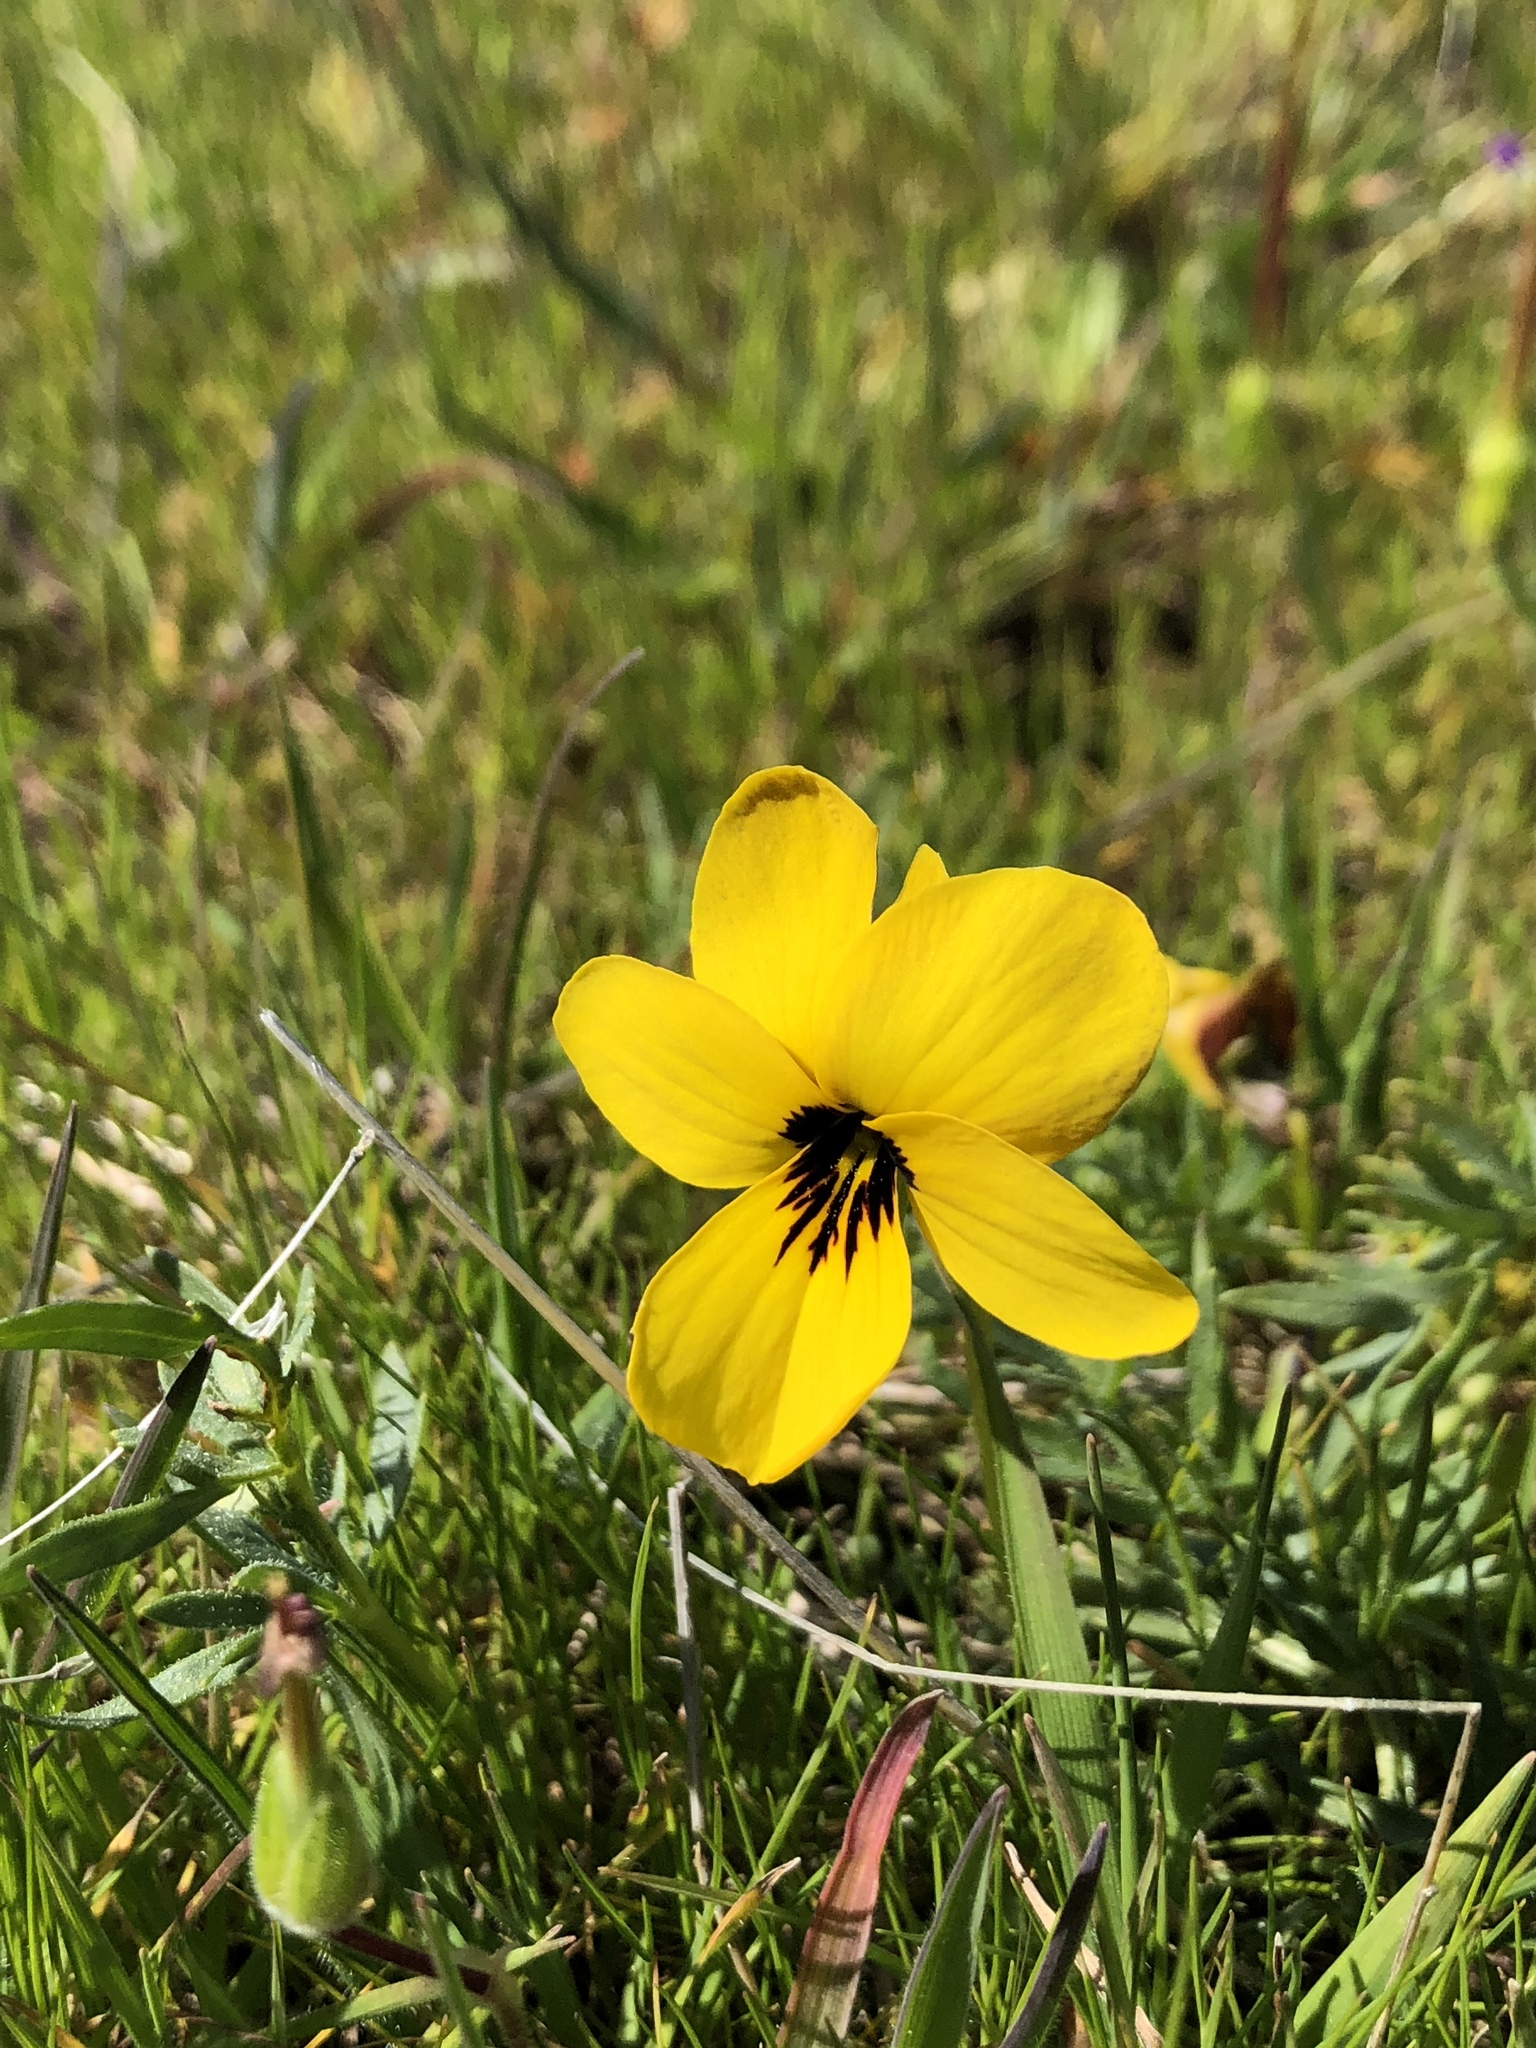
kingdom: Plantae
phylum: Tracheophyta
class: Magnoliopsida
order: Malpighiales
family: Violaceae
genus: Viola
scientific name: Viola douglasii
